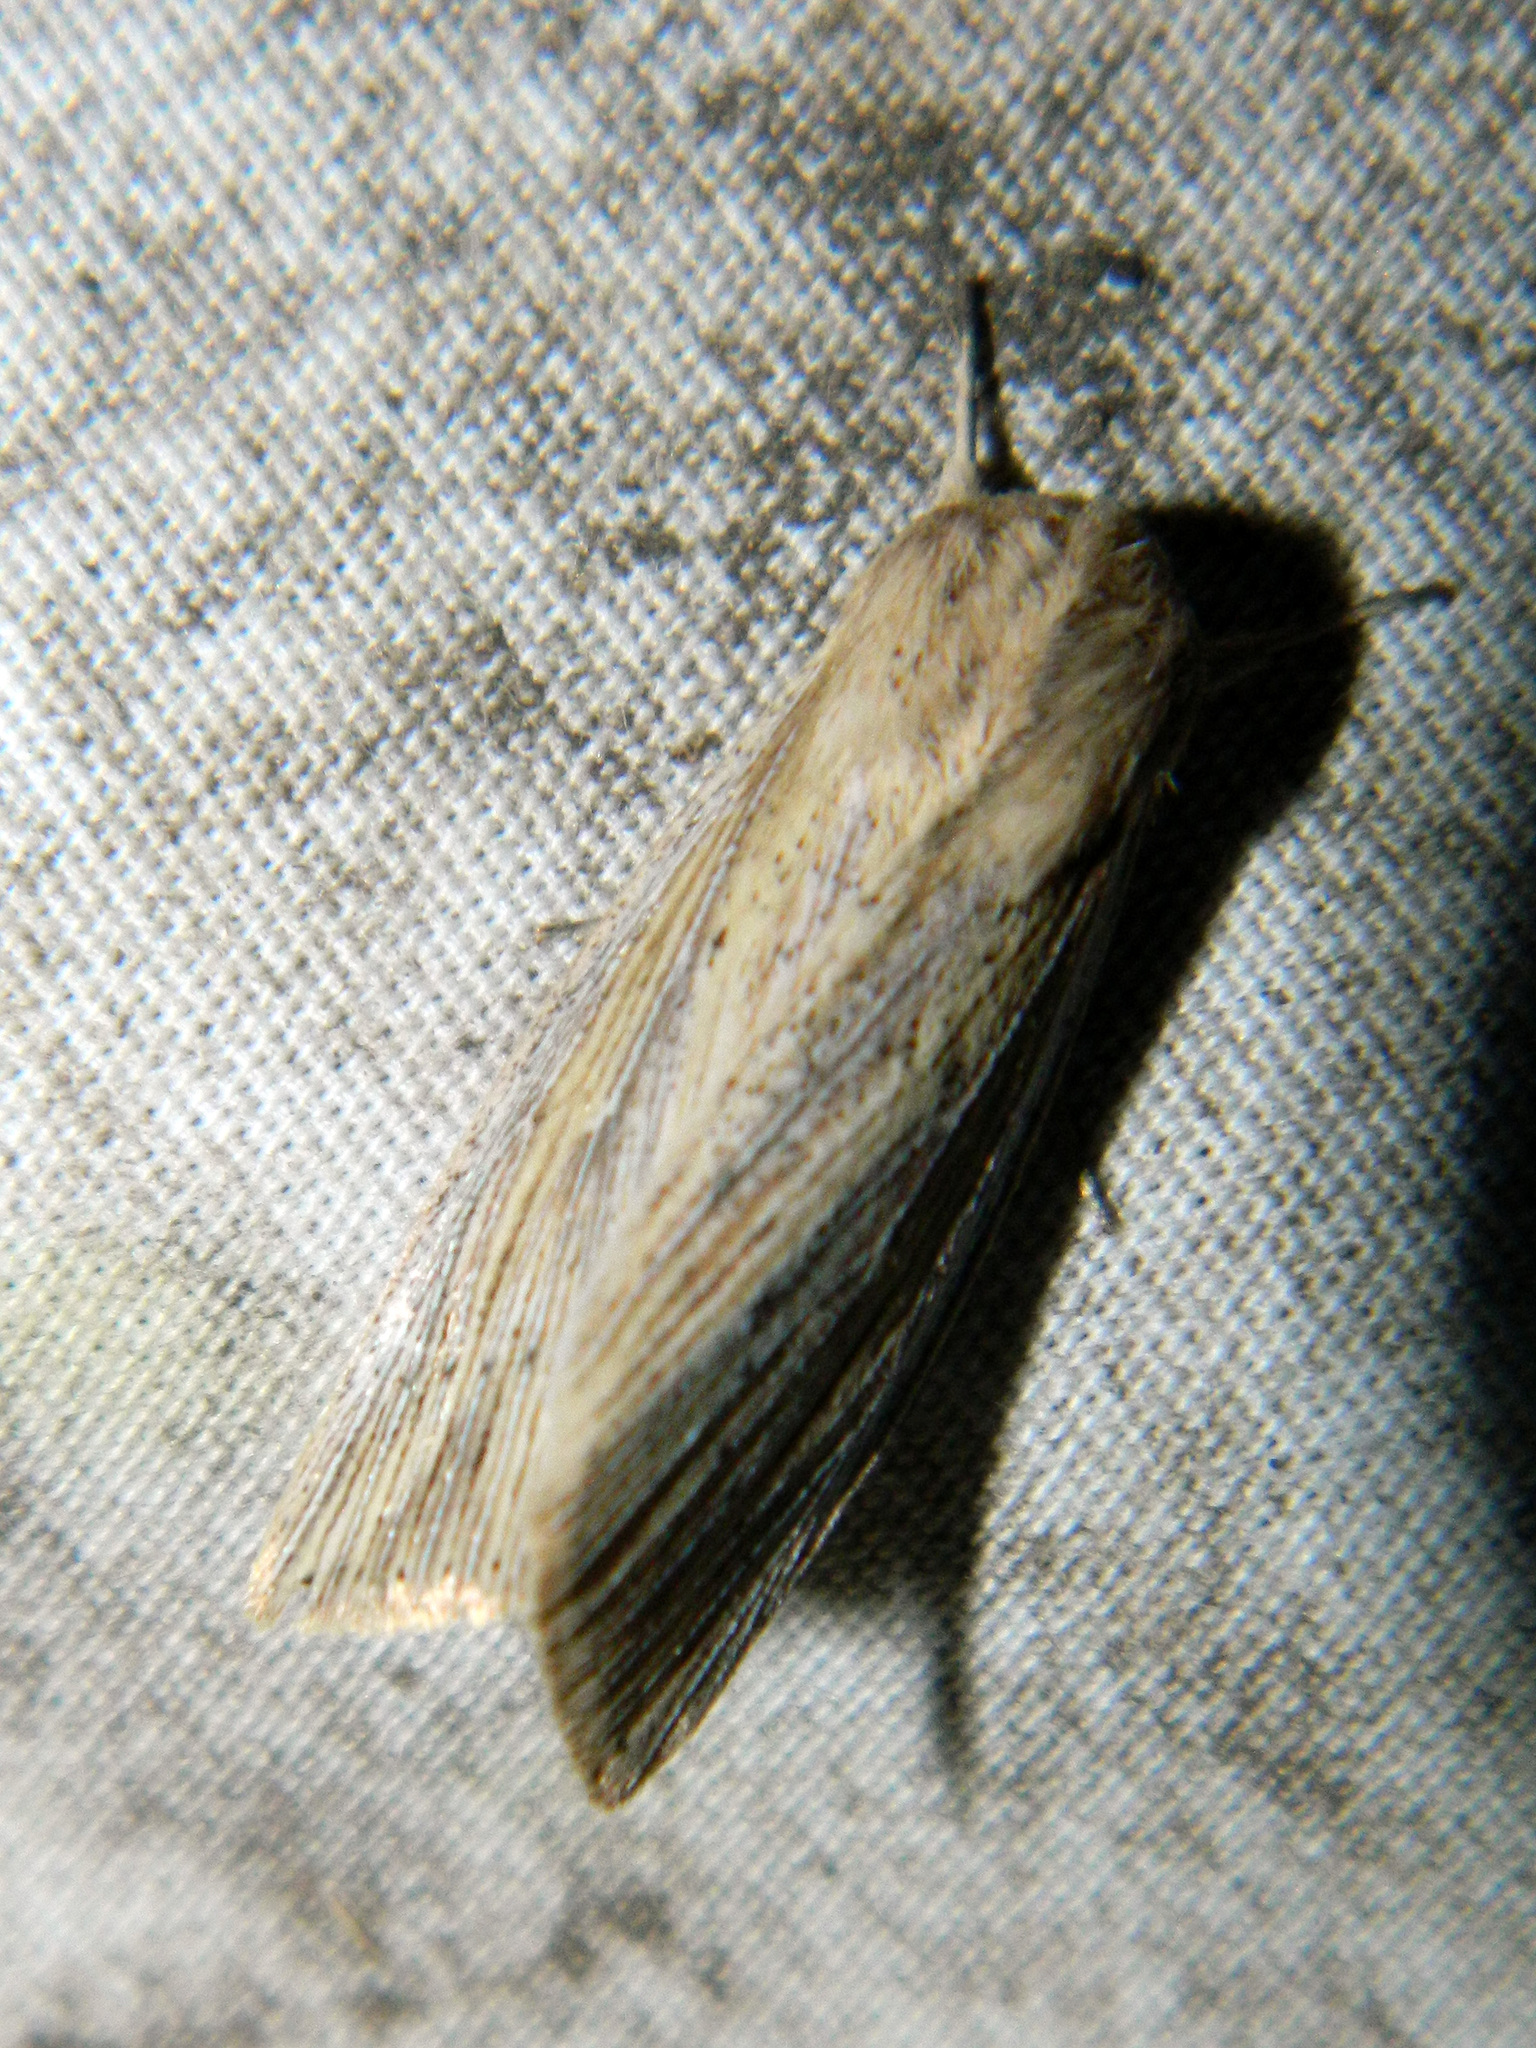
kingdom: Animalia
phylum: Arthropoda
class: Insecta
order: Lepidoptera
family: Noctuidae
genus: Leucania
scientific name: Leucania linita
